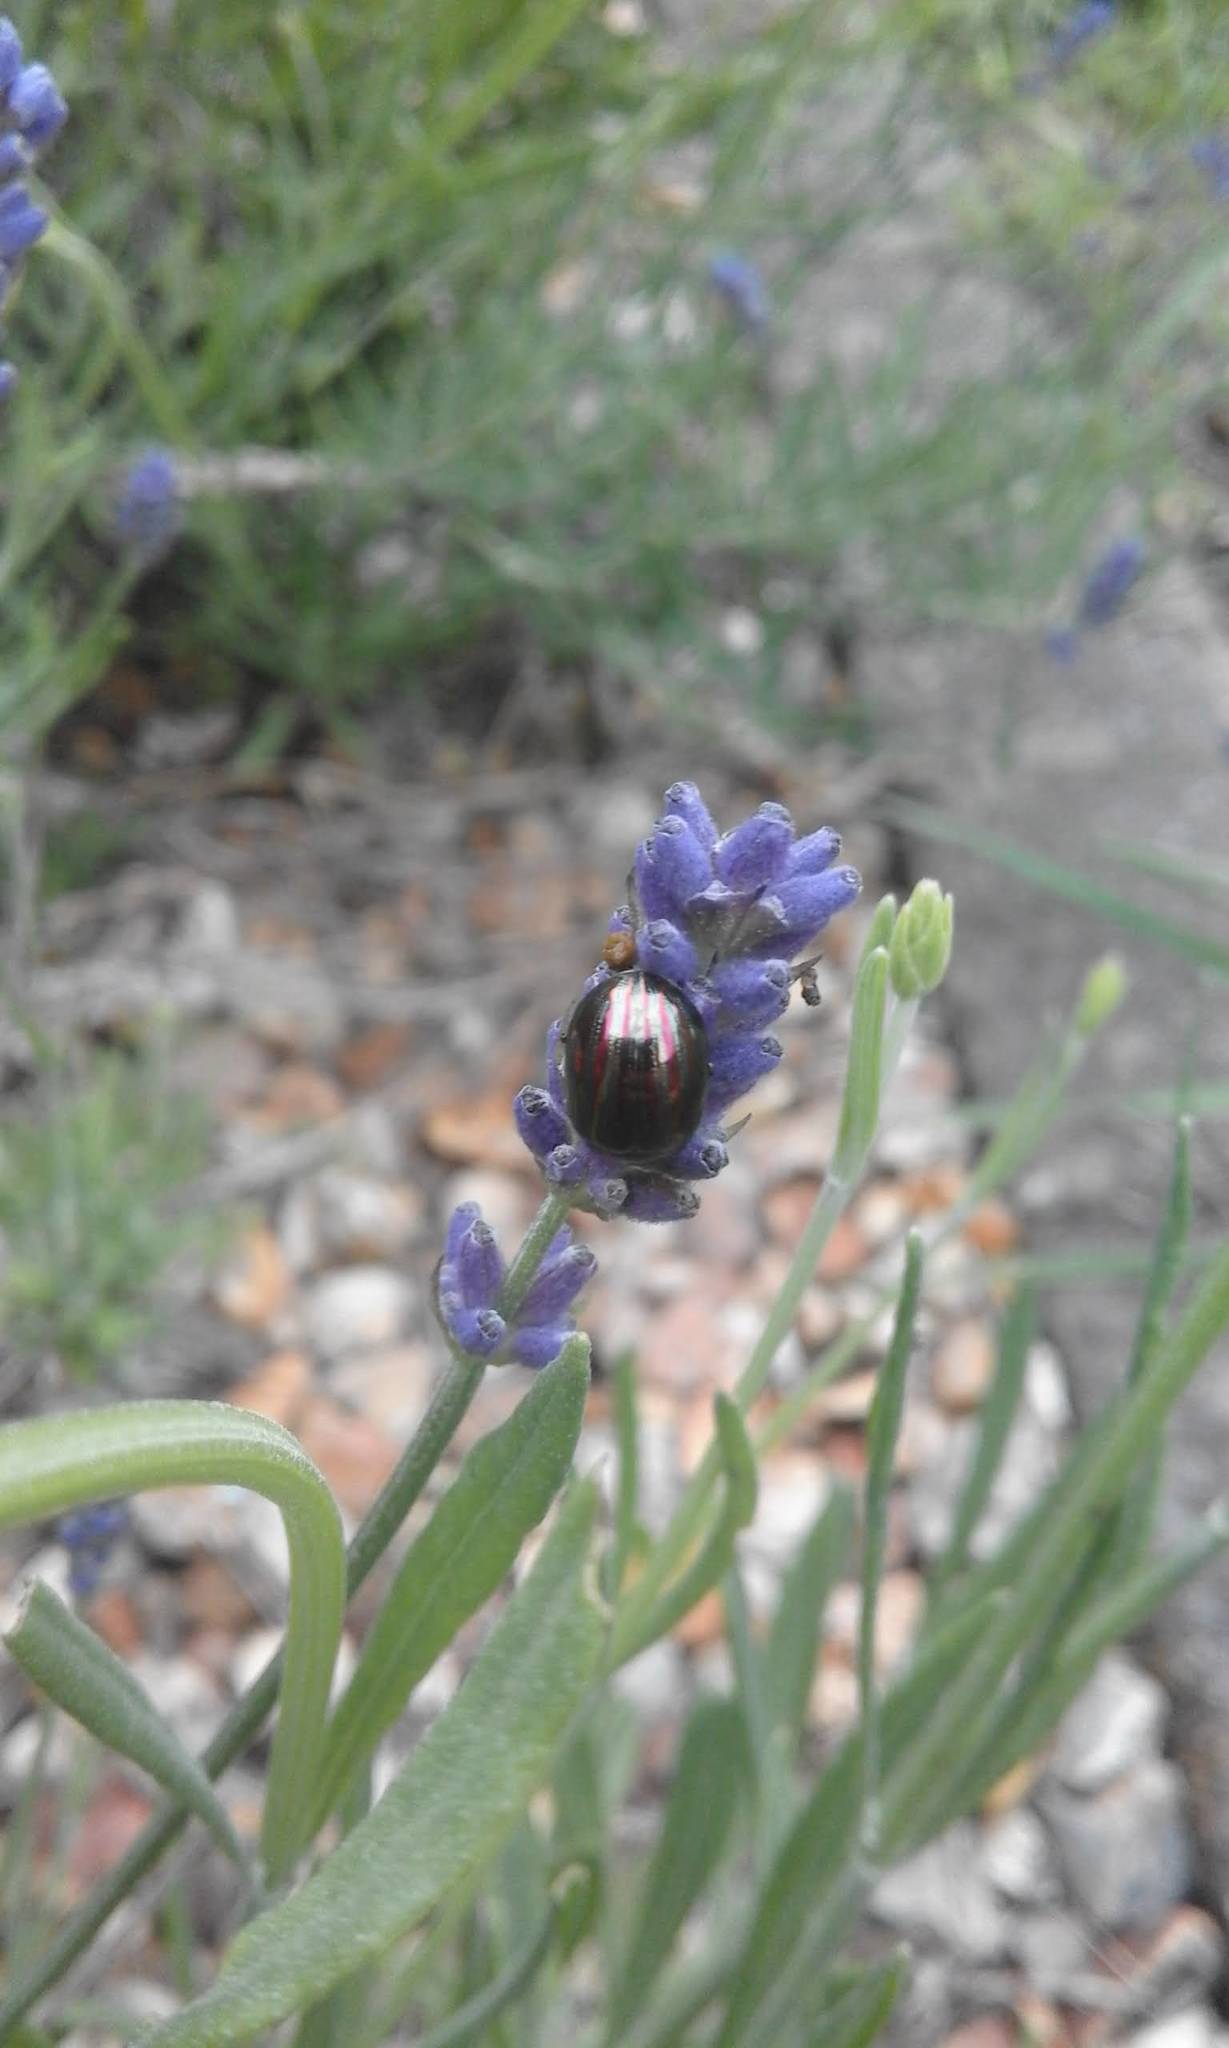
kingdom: Animalia
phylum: Arthropoda
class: Insecta
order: Coleoptera
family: Chrysomelidae
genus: Chrysolina
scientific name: Chrysolina americana
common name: Rosemary beetle
